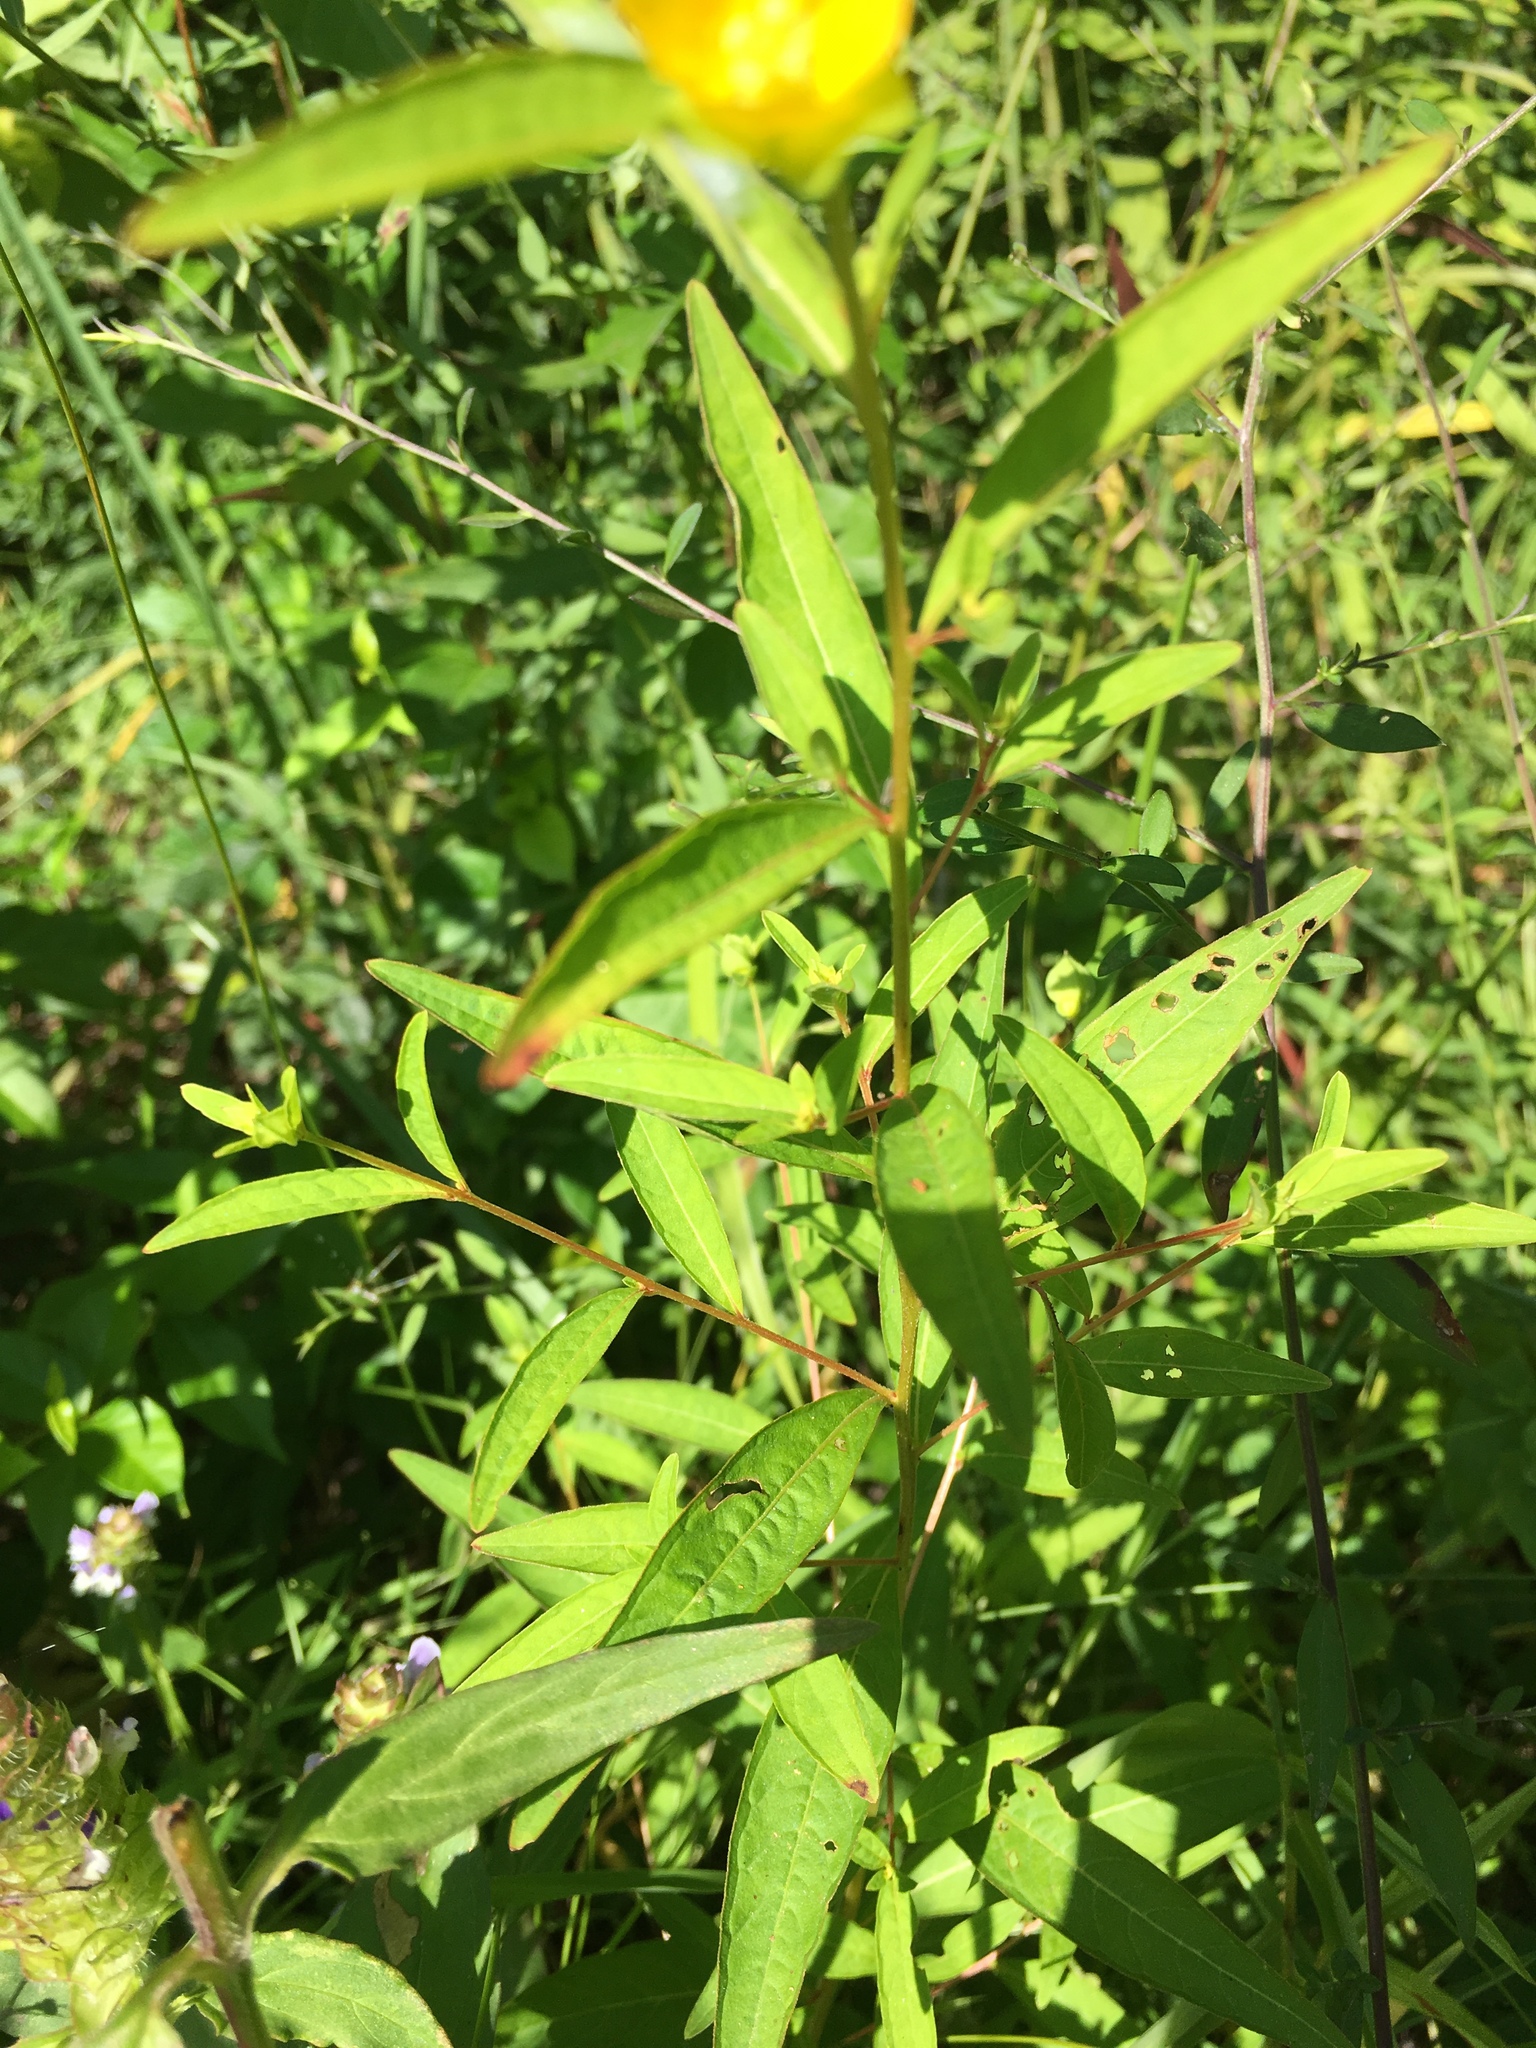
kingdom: Plantae
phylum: Tracheophyta
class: Magnoliopsida
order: Myrtales
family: Onagraceae
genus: Ludwigia
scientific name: Ludwigia alternifolia
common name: Rattlebox
